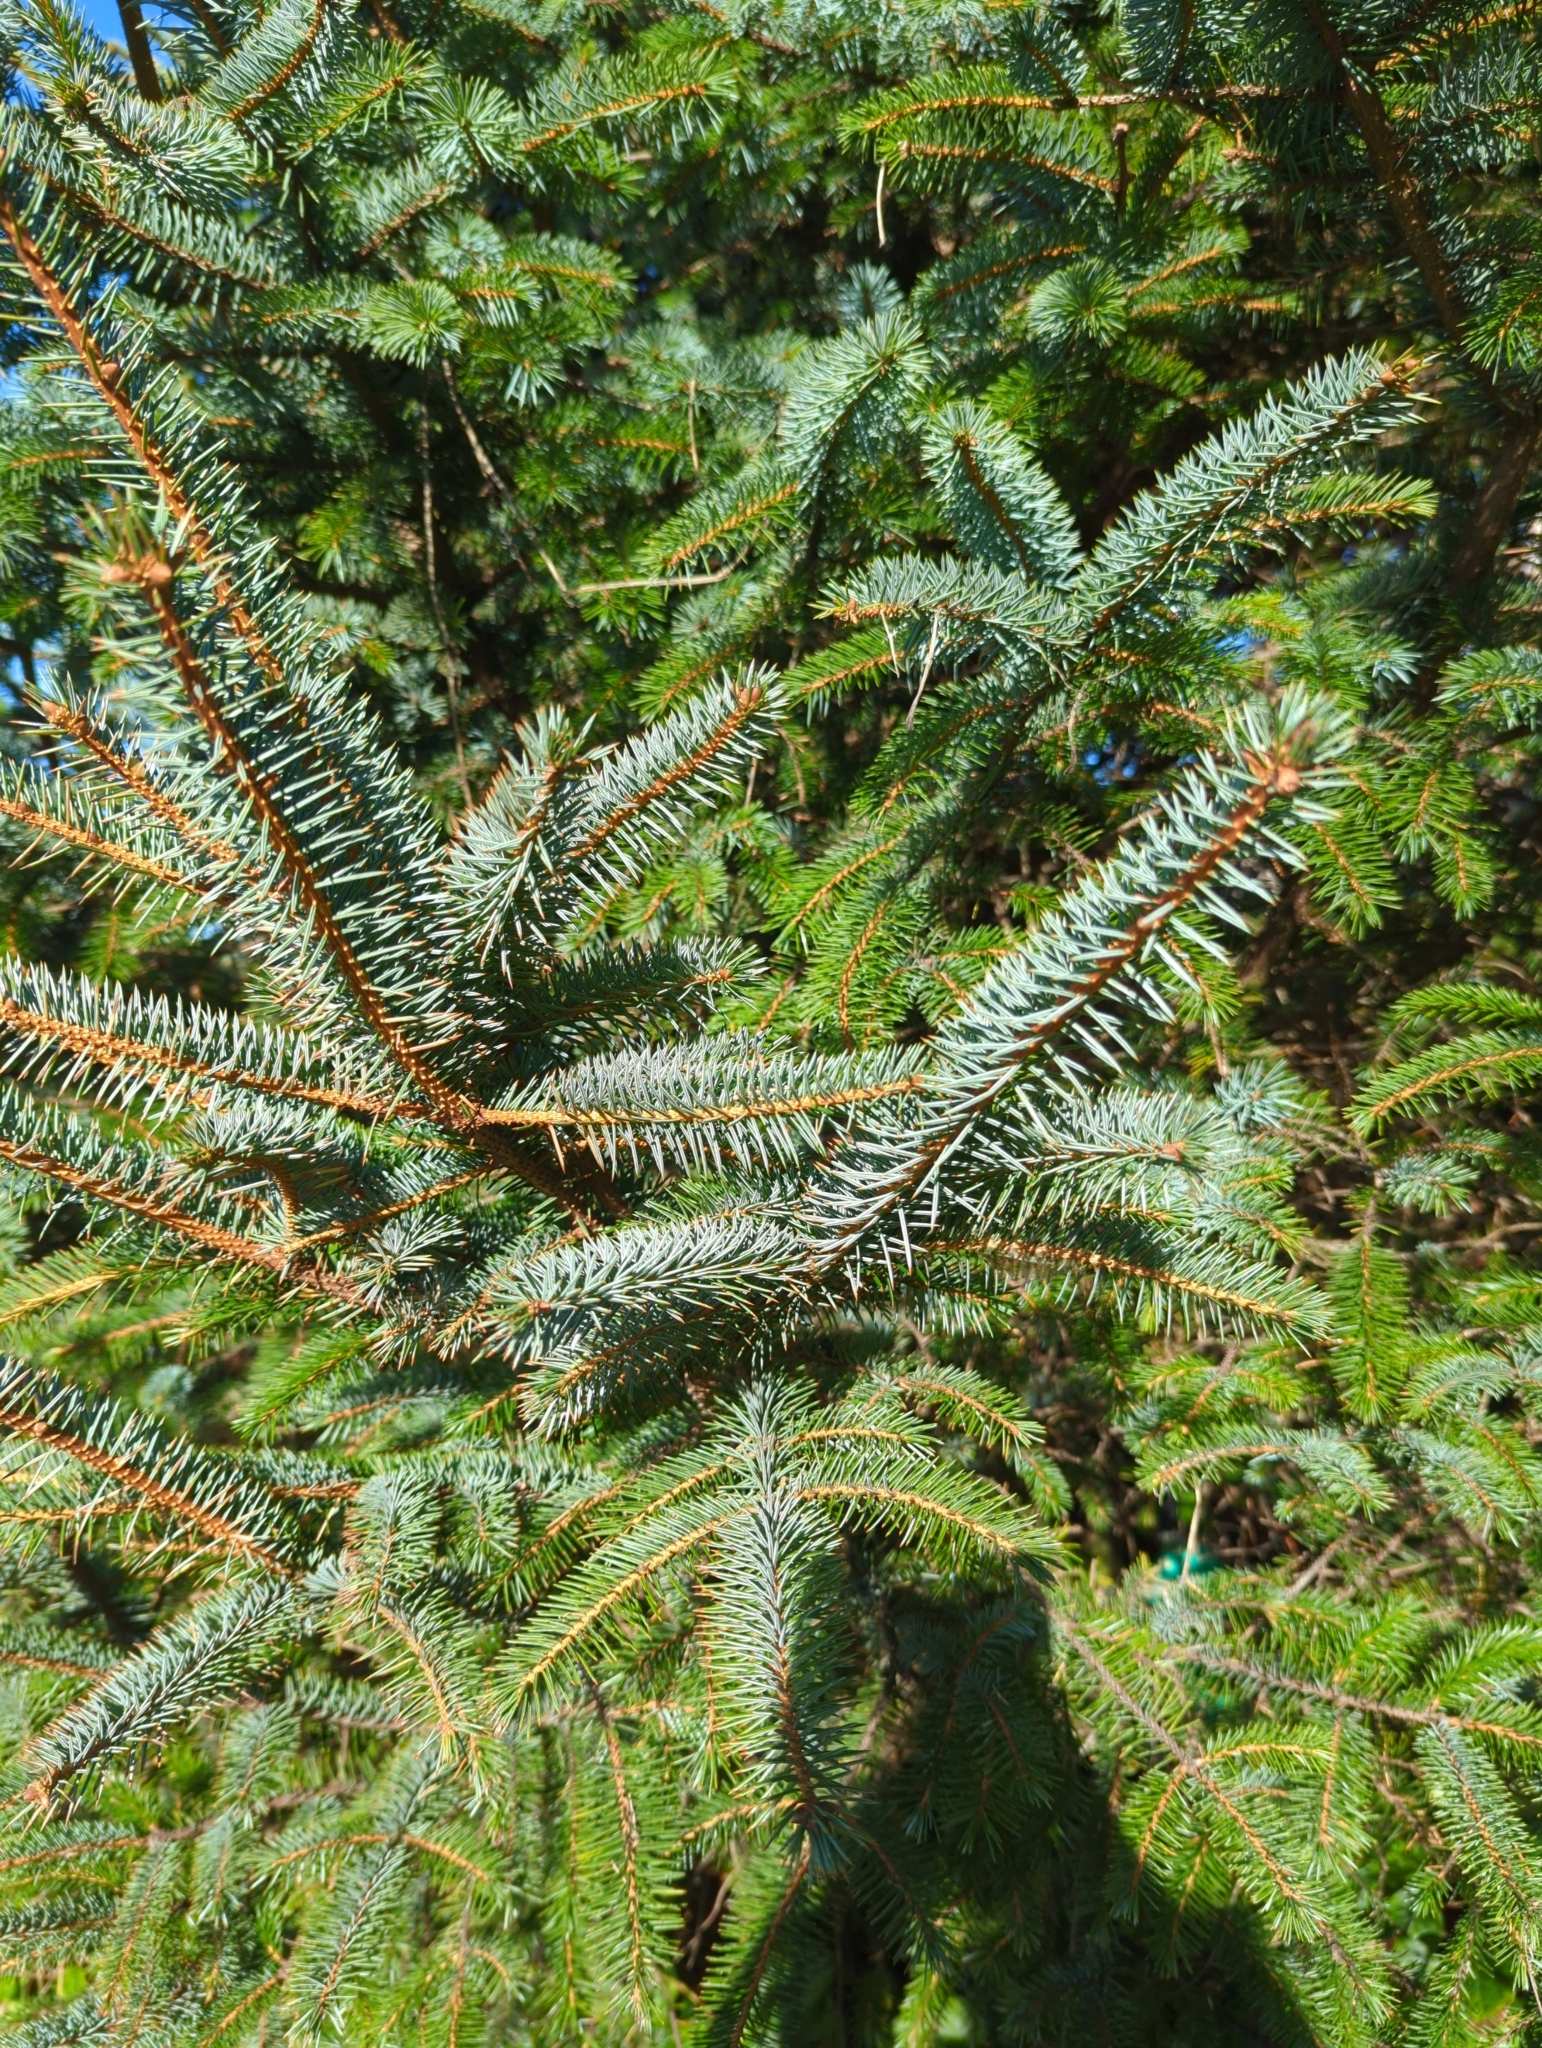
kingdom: Plantae
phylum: Tracheophyta
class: Pinopsida
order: Pinales
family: Pinaceae
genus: Picea
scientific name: Picea sitchensis
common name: Sitka spruce
